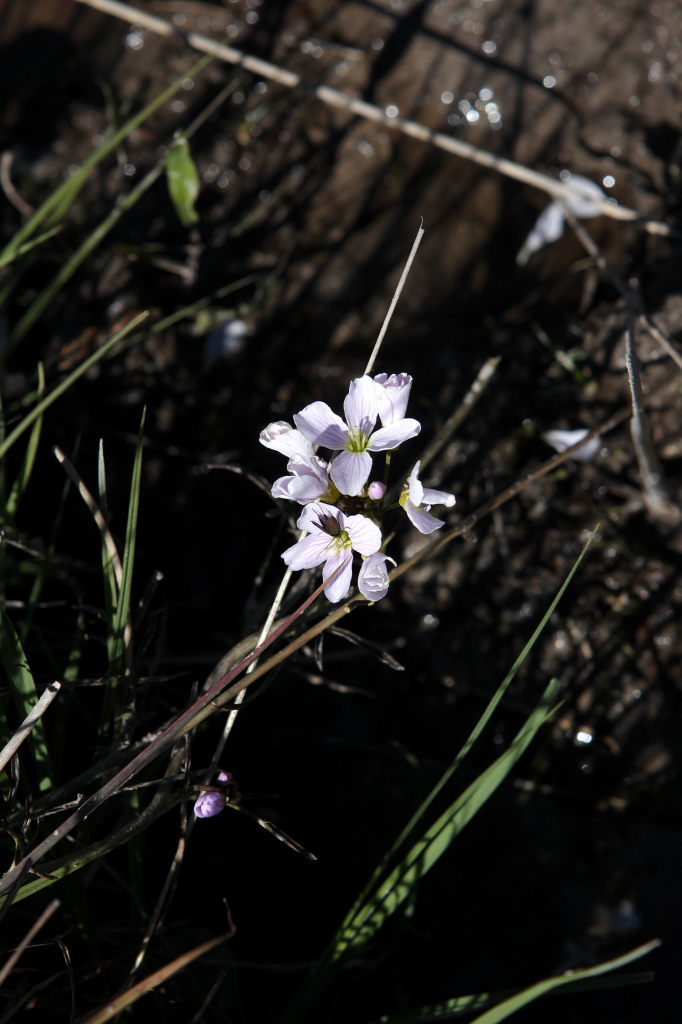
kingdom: Plantae
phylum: Tracheophyta
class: Magnoliopsida
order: Brassicales
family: Brassicaceae
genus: Cardamine
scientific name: Cardamine pratensis
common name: Cuckoo flower
